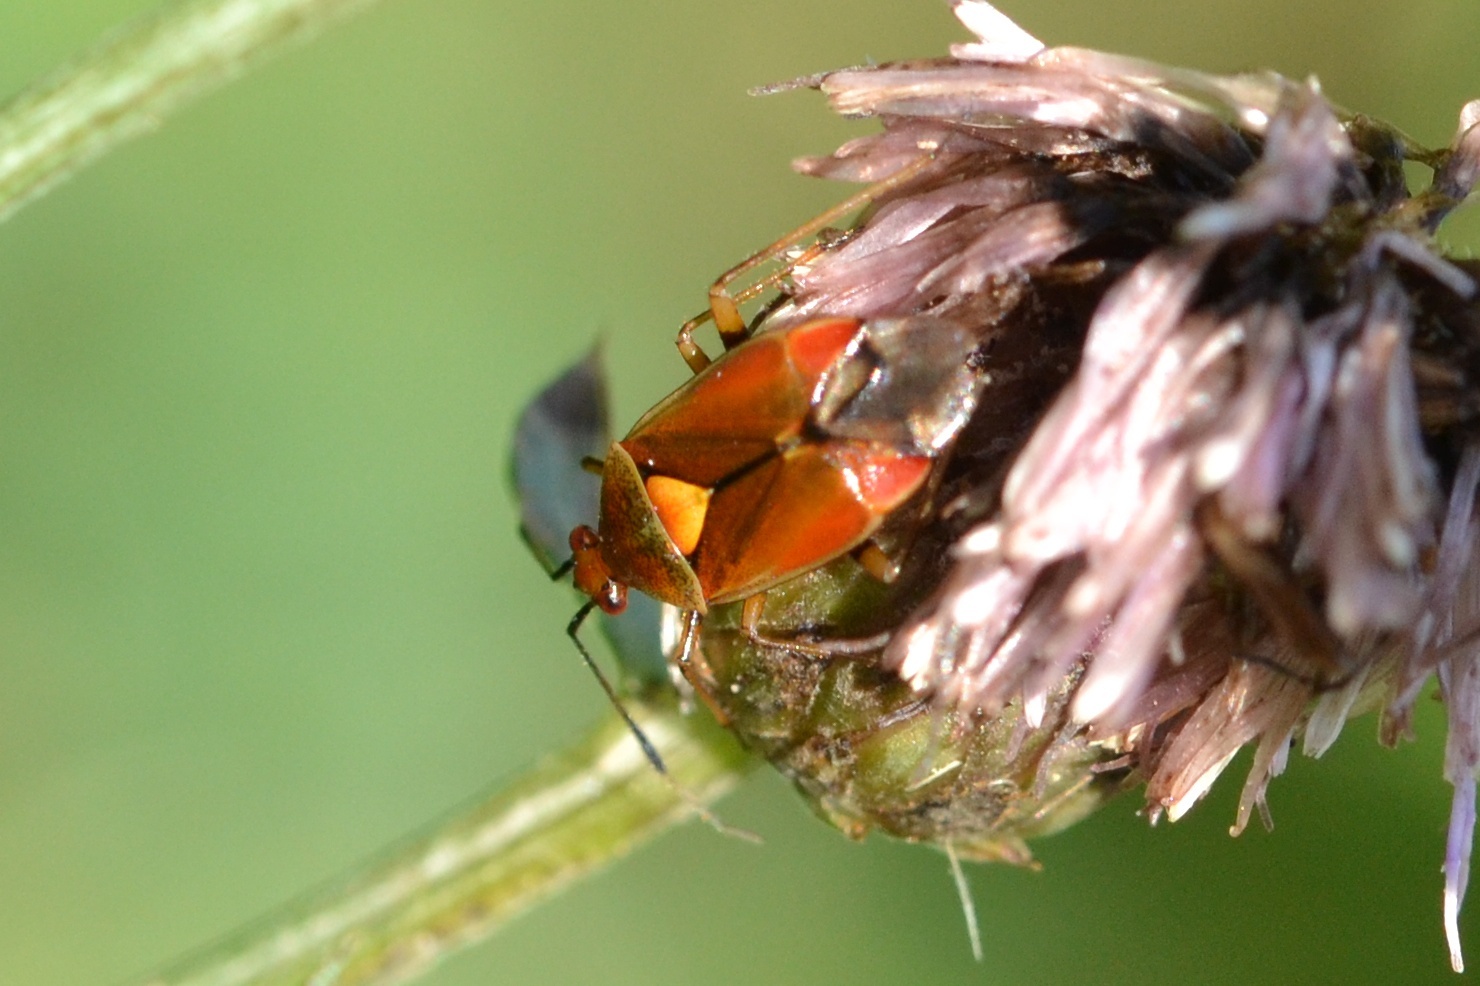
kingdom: Animalia
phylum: Arthropoda
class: Insecta
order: Hemiptera
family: Miridae
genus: Deraeocoris
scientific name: Deraeocoris ruber
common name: Plant bug
